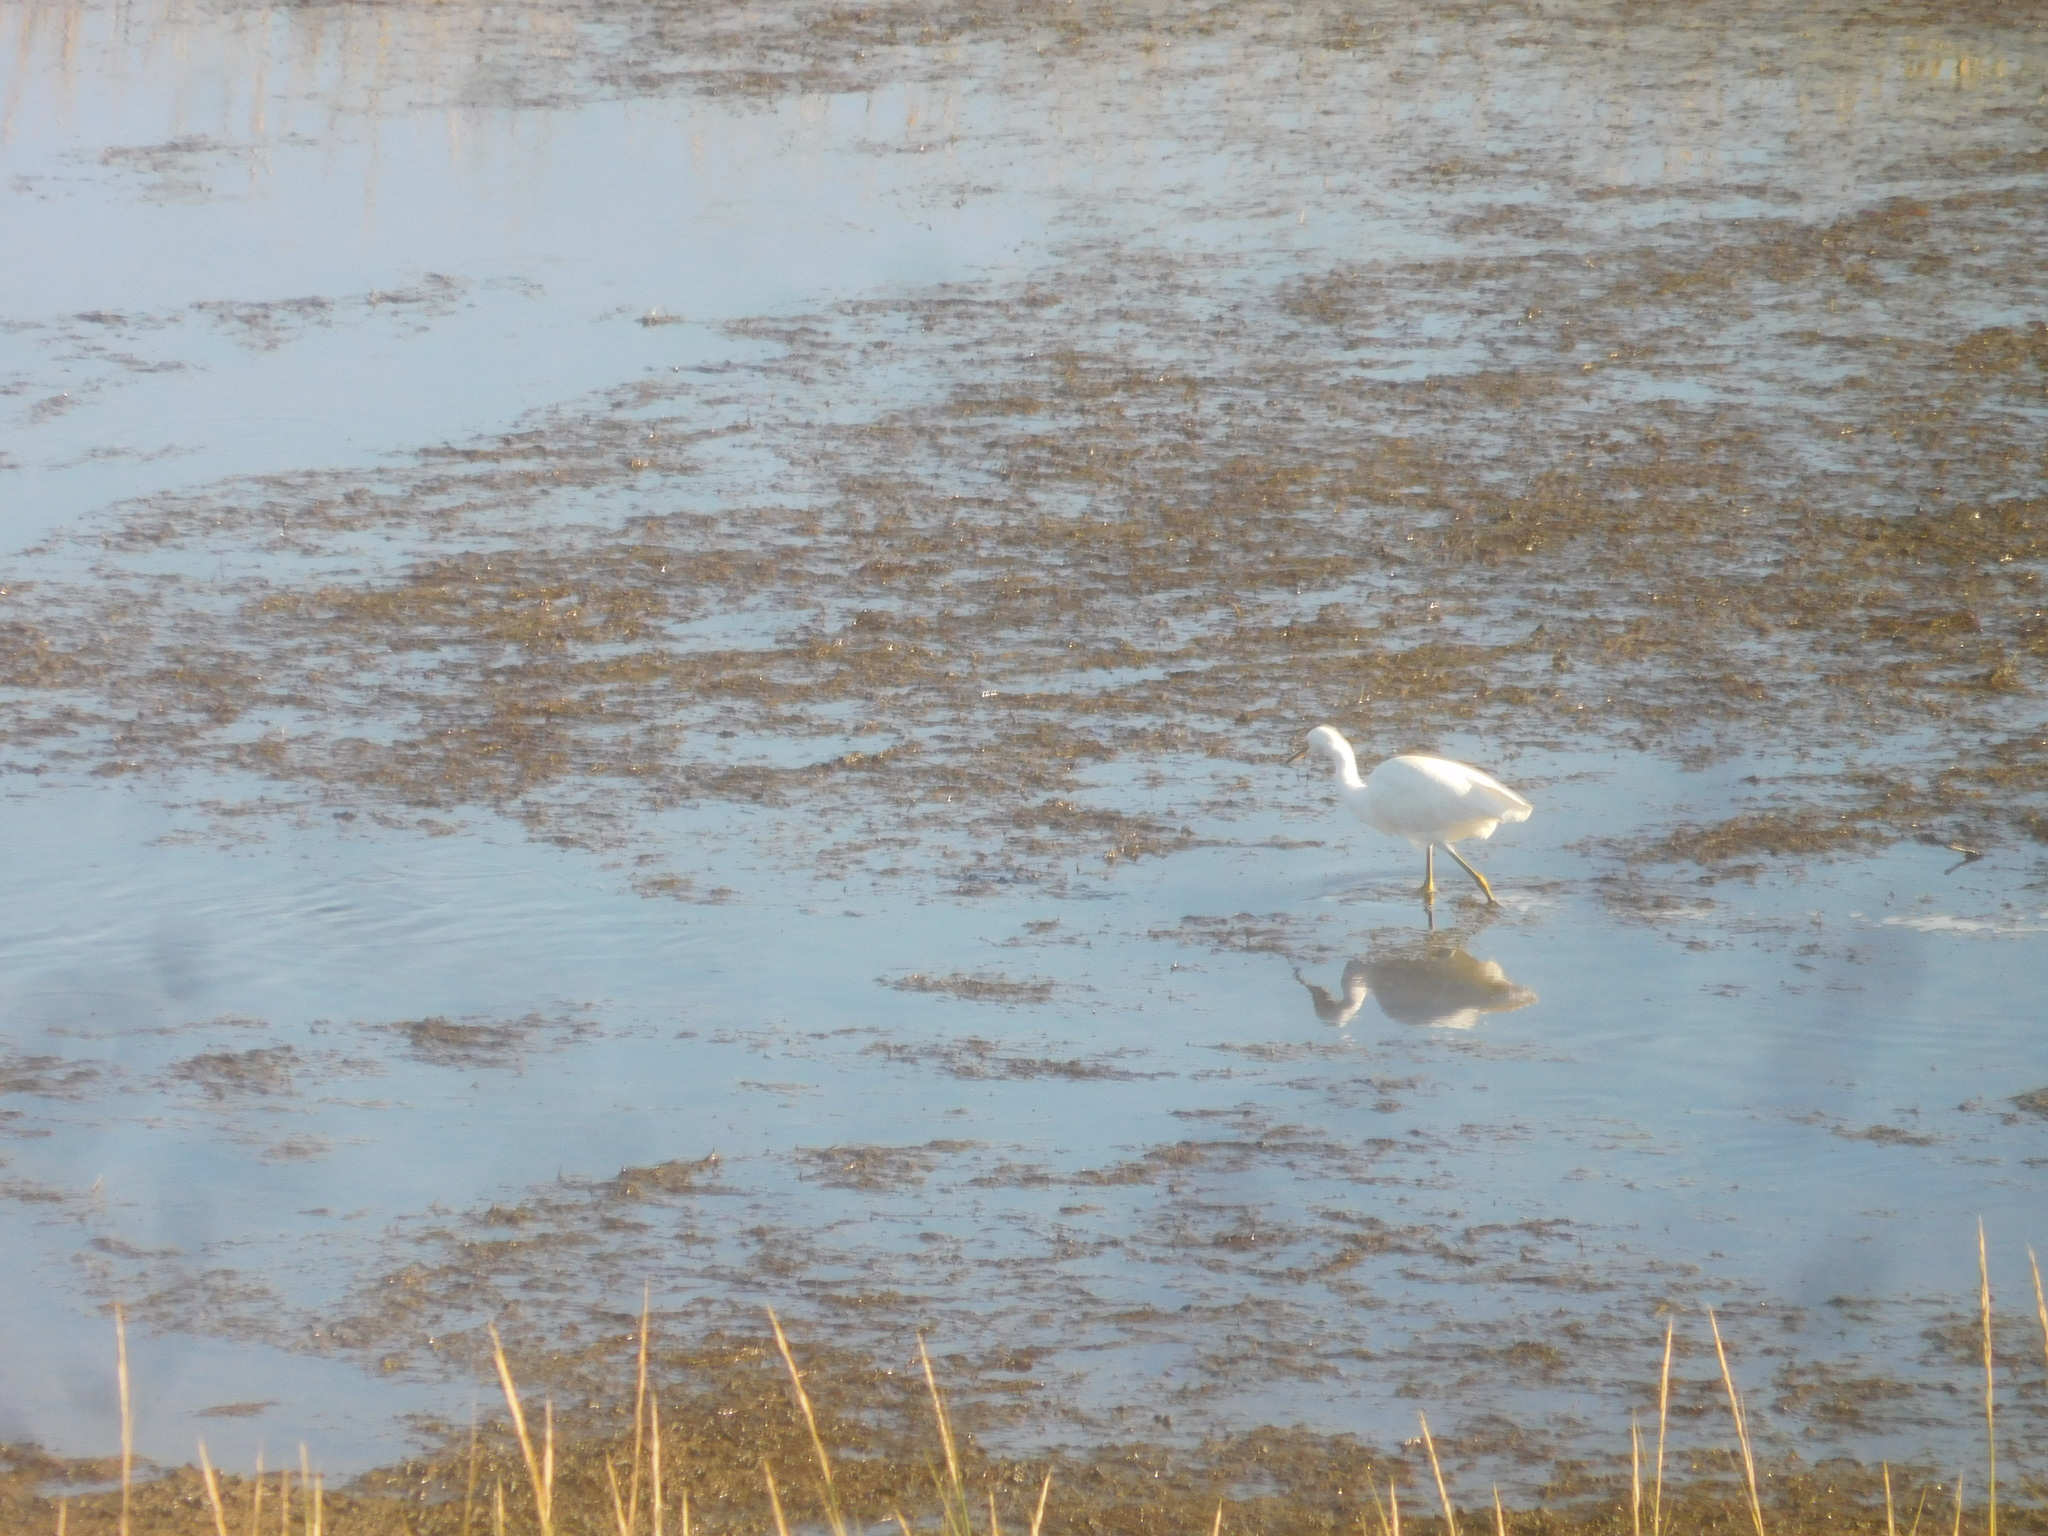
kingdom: Animalia
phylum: Chordata
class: Aves
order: Pelecaniformes
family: Ardeidae
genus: Egretta
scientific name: Egretta thula
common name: Snowy egret
